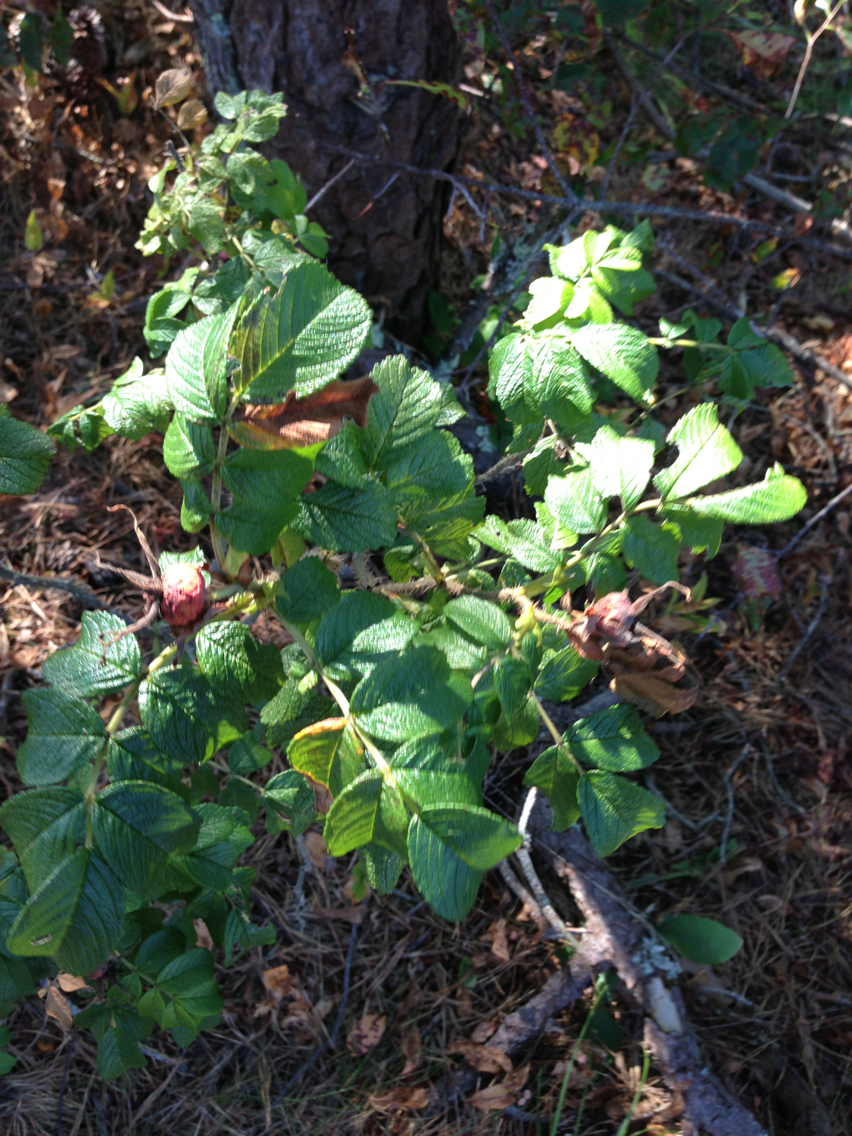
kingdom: Plantae
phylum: Tracheophyta
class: Magnoliopsida
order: Rosales
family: Rosaceae
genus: Rosa
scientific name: Rosa rugosa
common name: Japanese rose
